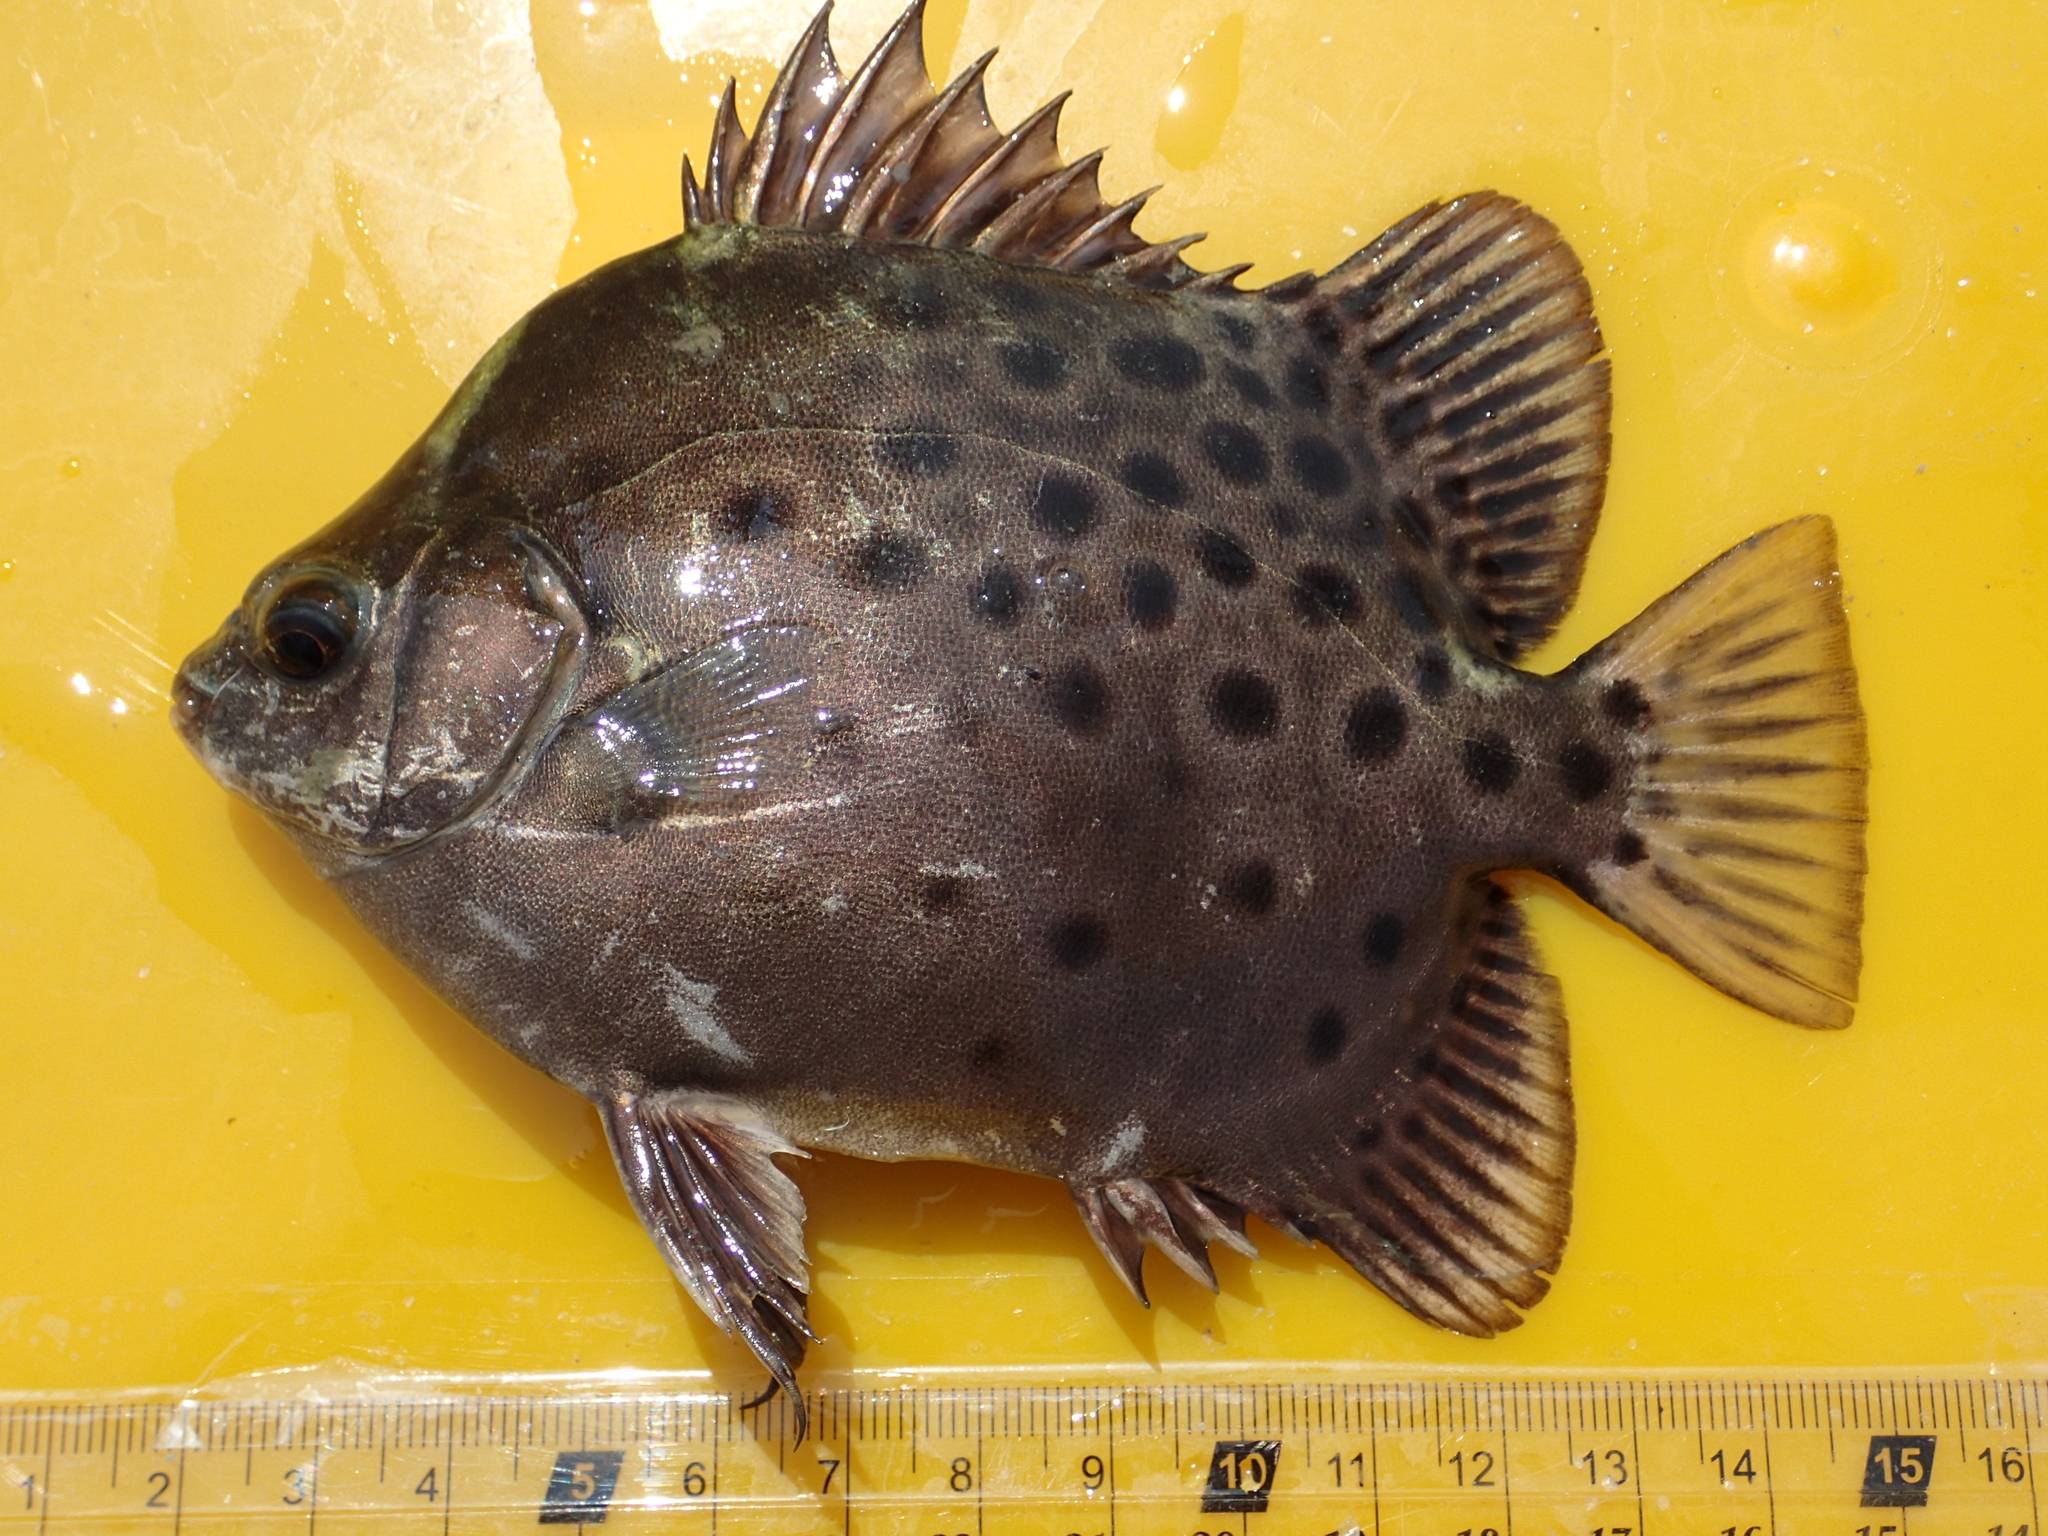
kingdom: Animalia
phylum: Chordata
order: Perciformes
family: Scatophagidae
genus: Scatophagus
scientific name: Scatophagus argus
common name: Spotted scat
